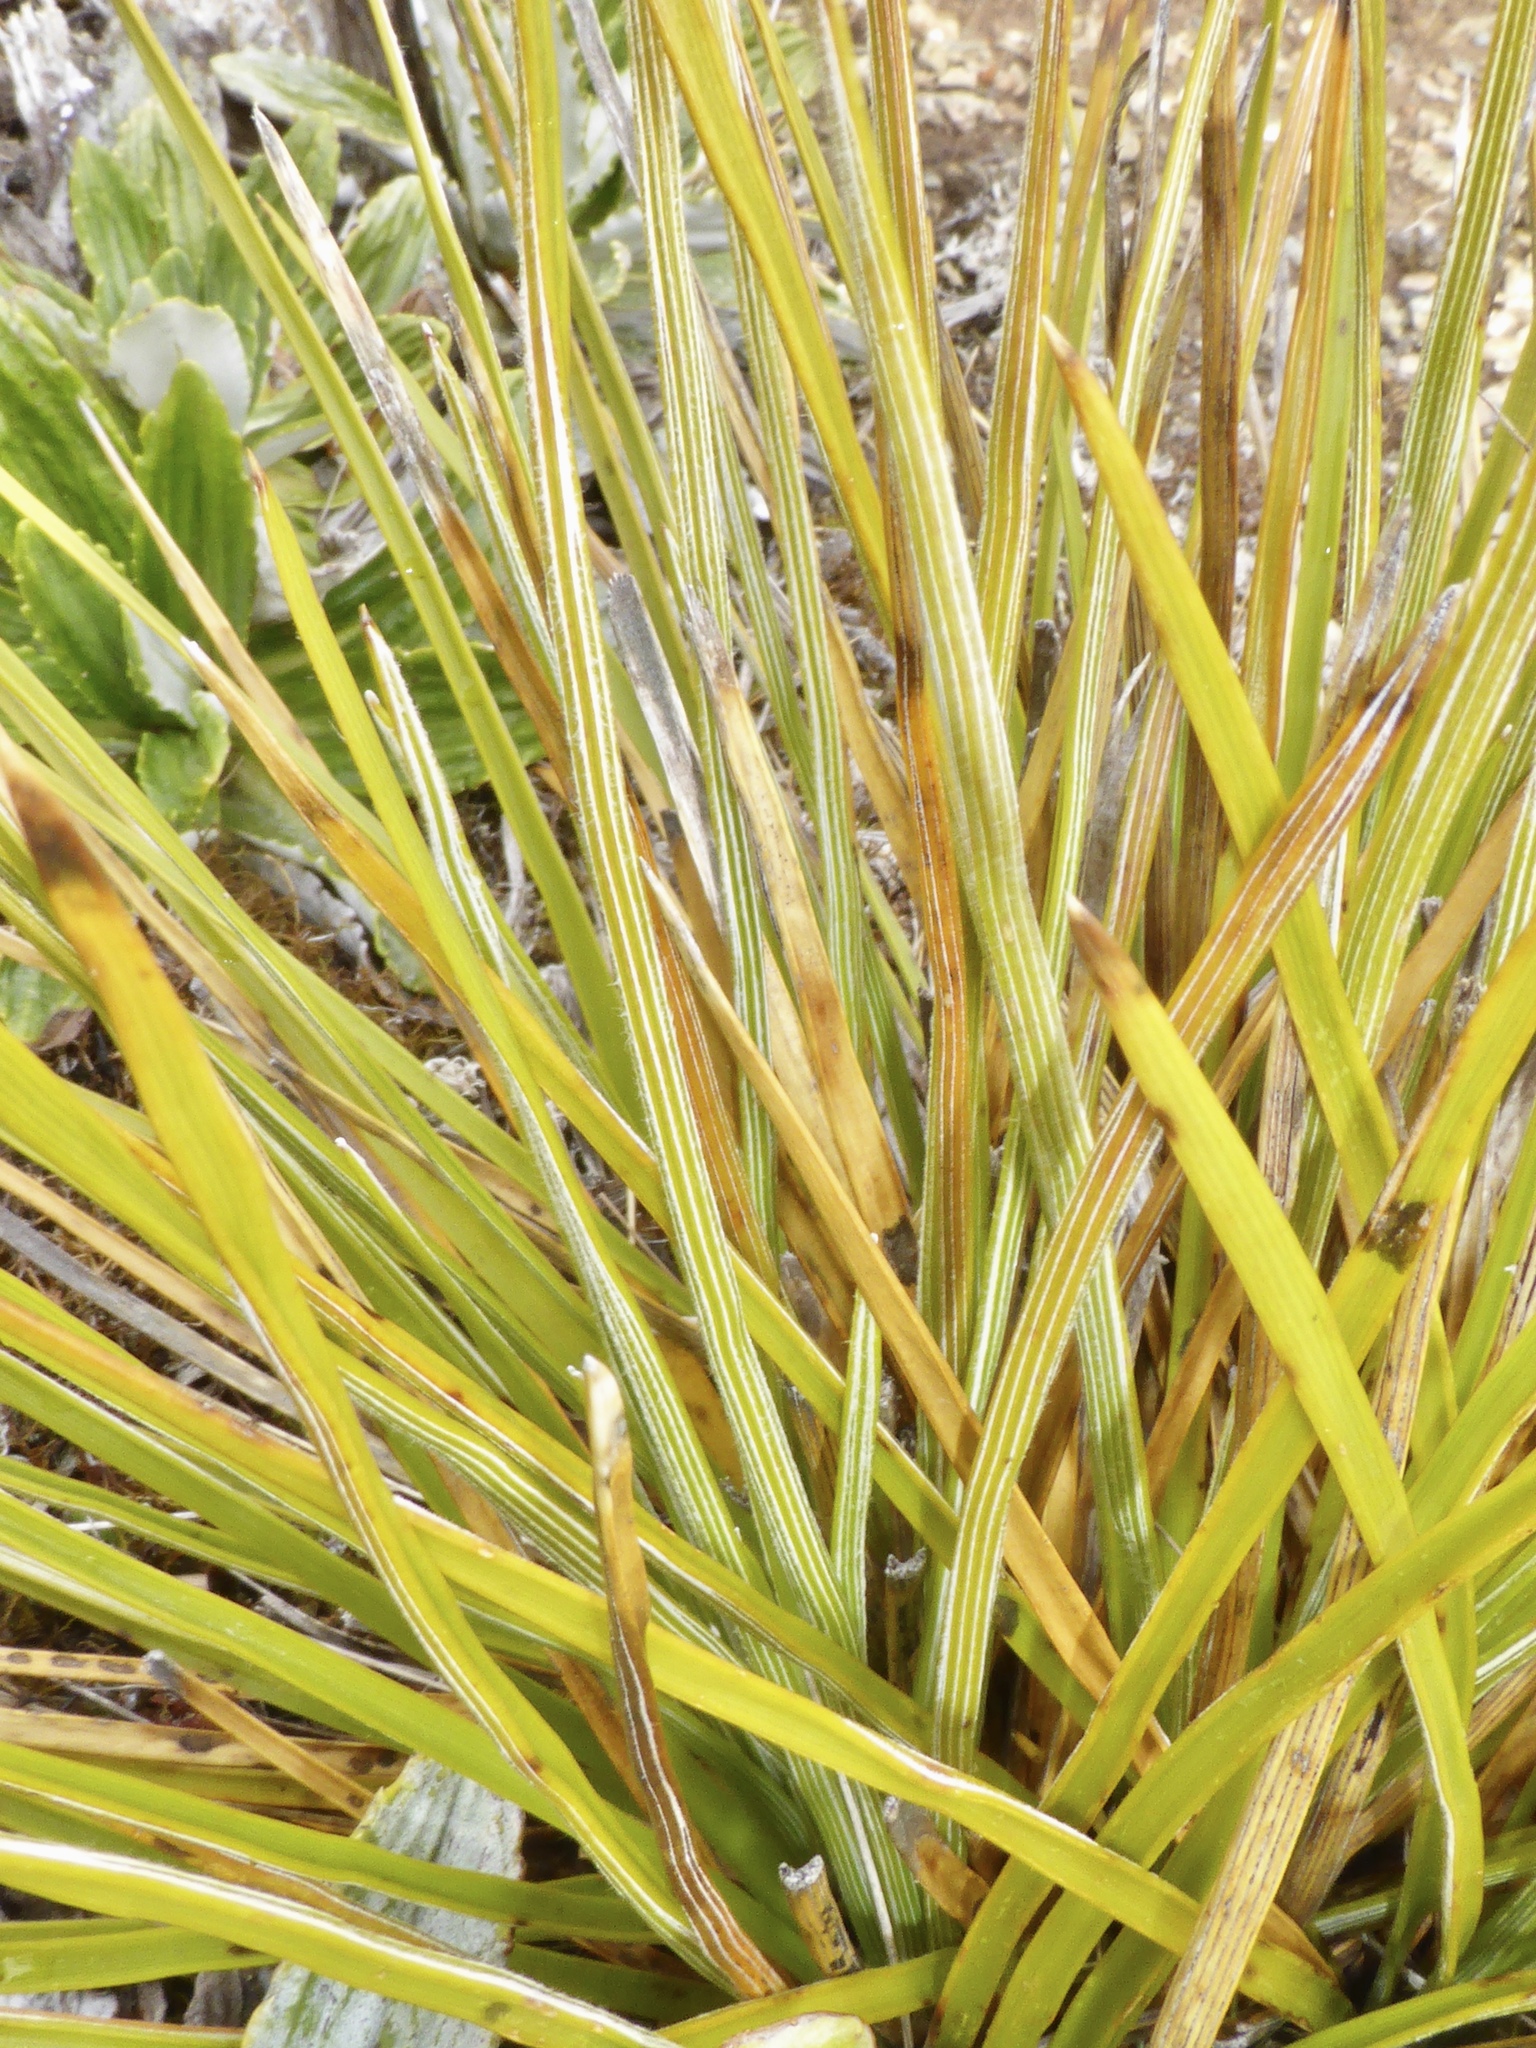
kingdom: Plantae
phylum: Tracheophyta
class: Magnoliopsida
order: Asterales
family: Asteraceae
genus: Celmisia
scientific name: Celmisia lyallii
